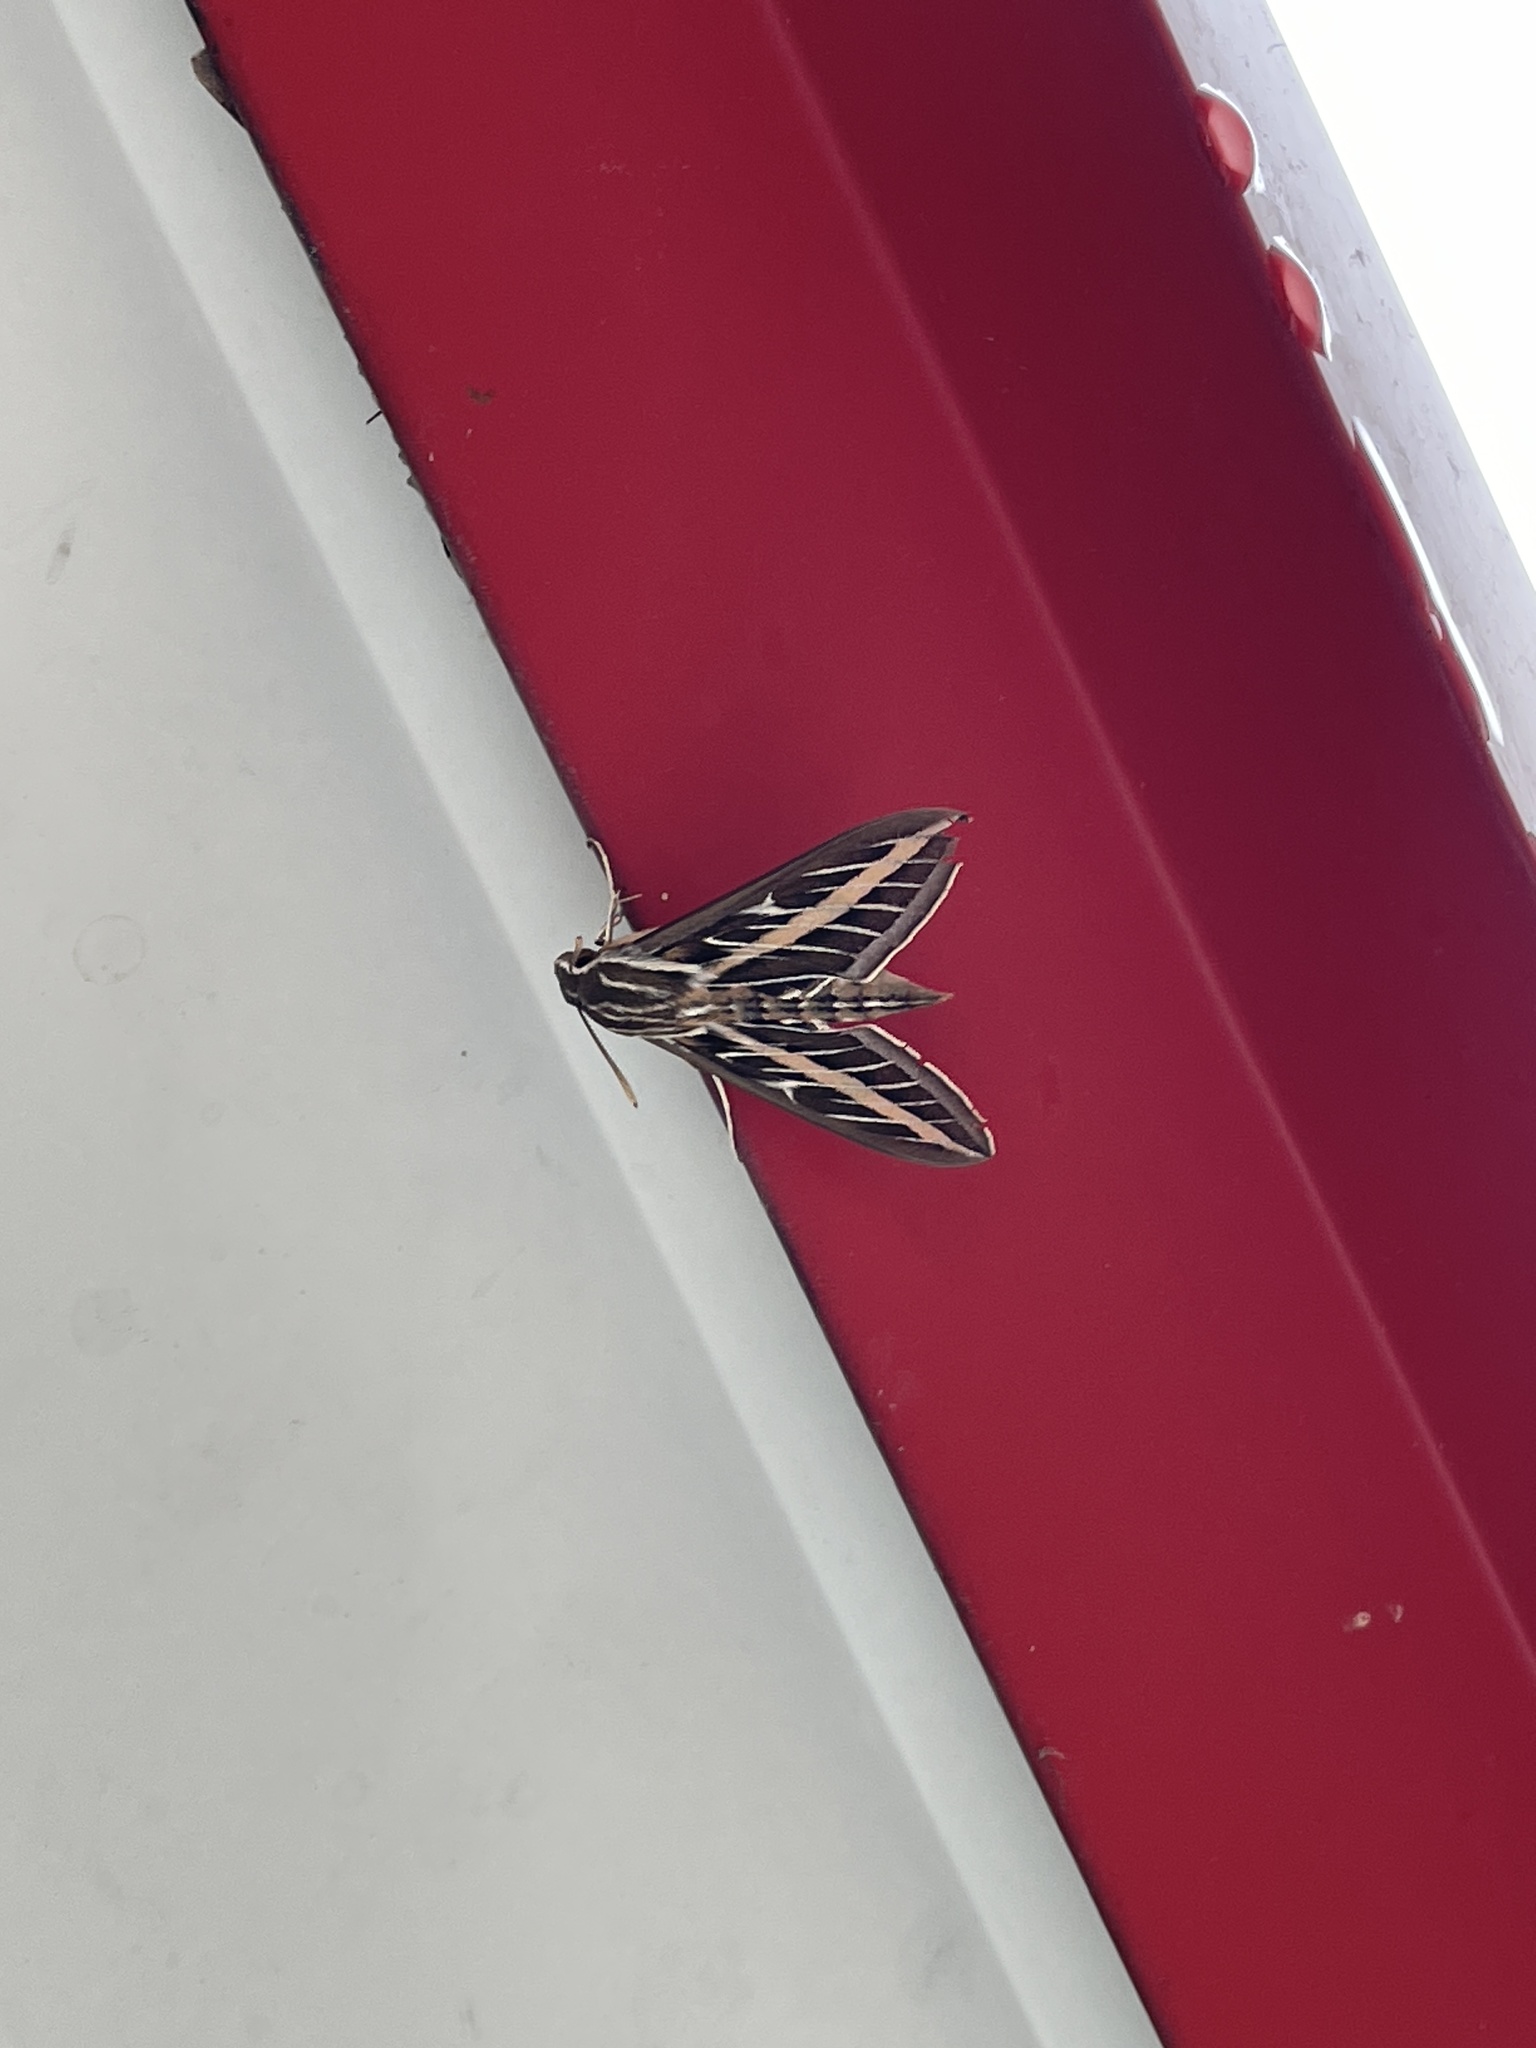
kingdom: Animalia
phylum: Arthropoda
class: Insecta
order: Lepidoptera
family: Sphingidae
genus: Hyles
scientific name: Hyles lineata
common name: White-lined sphinx
